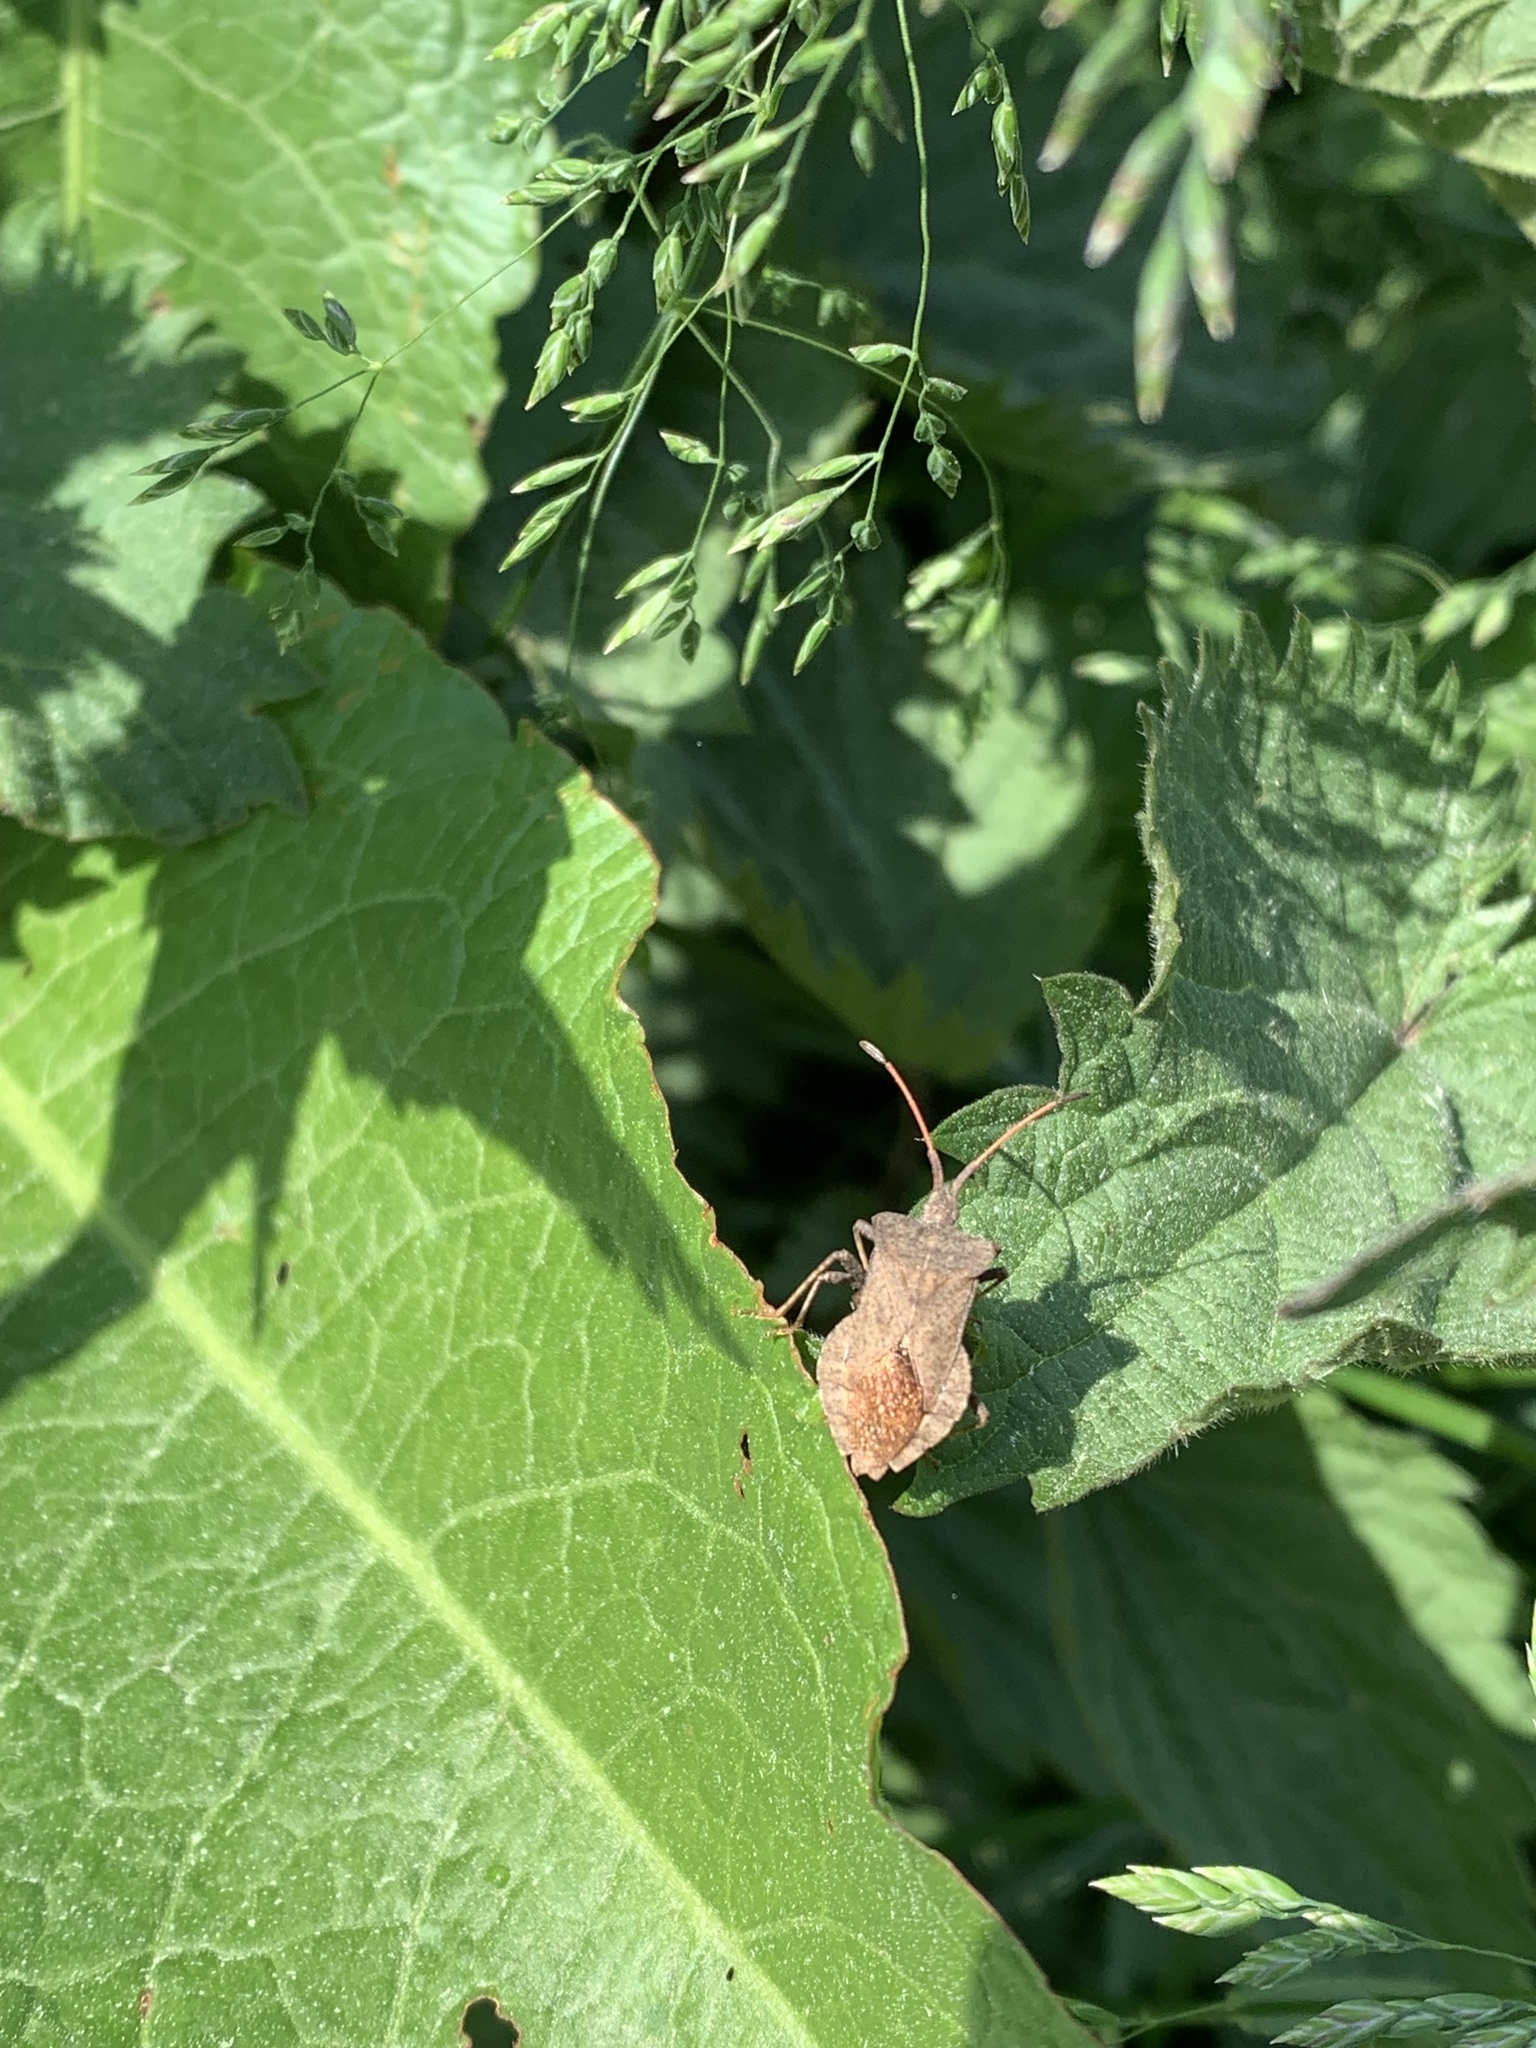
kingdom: Animalia
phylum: Arthropoda
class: Insecta
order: Hemiptera
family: Coreidae
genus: Coreus
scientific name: Coreus marginatus
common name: Dock bug
